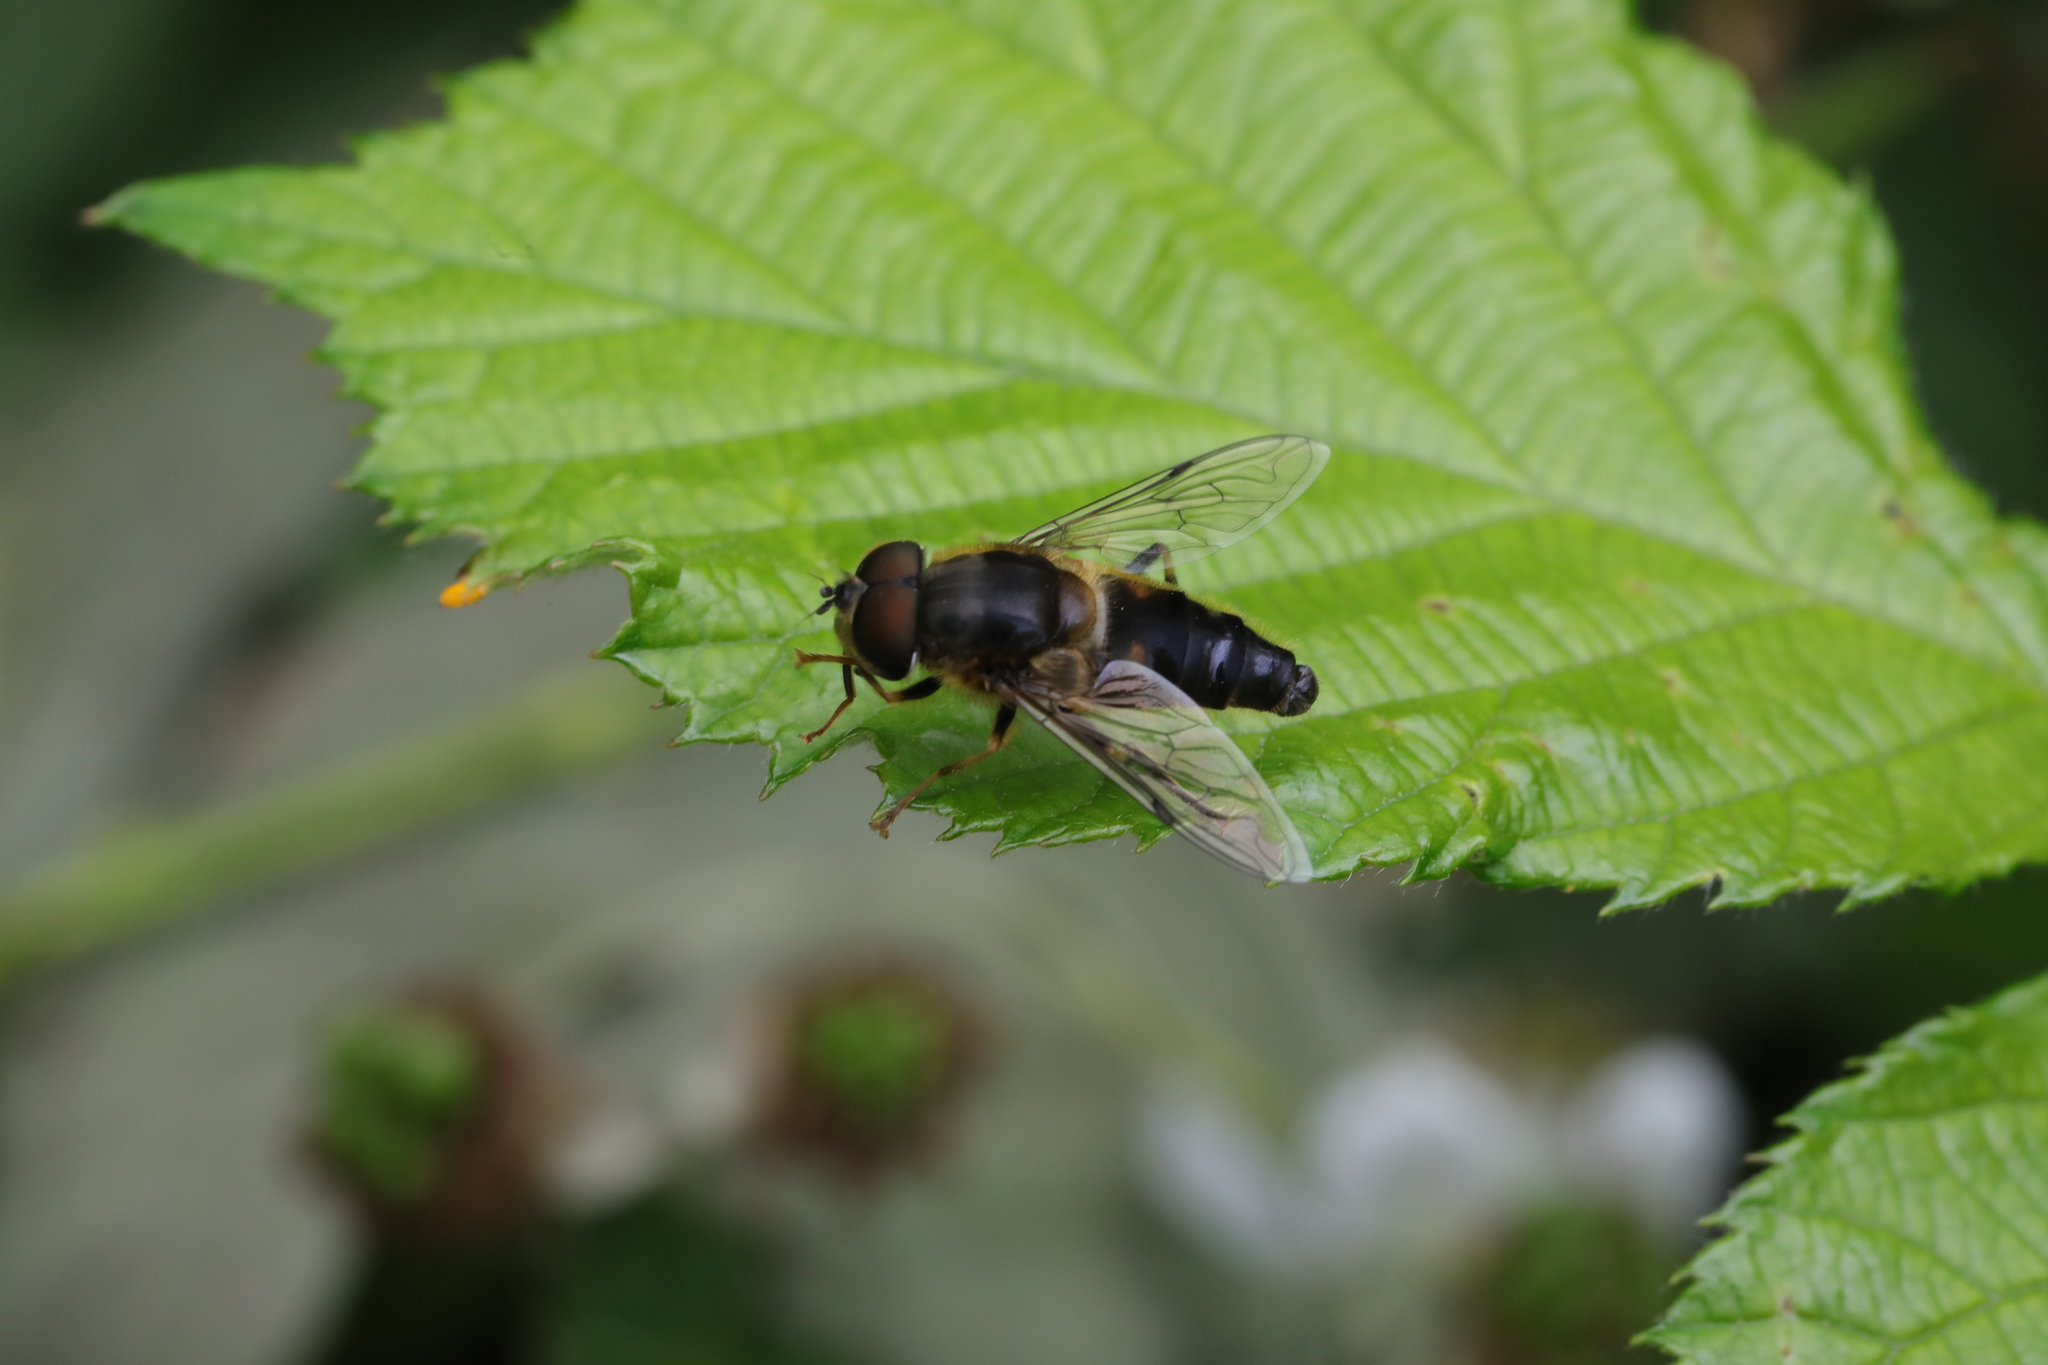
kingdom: Animalia
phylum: Arthropoda
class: Insecta
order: Diptera
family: Syrphidae
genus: Eristalis
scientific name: Eristalis pertinax
